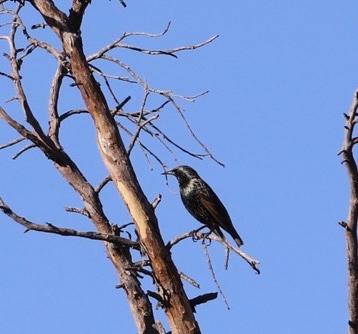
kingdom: Animalia
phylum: Chordata
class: Aves
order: Passeriformes
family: Sturnidae
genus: Sturnus
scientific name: Sturnus vulgaris
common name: Common starling
